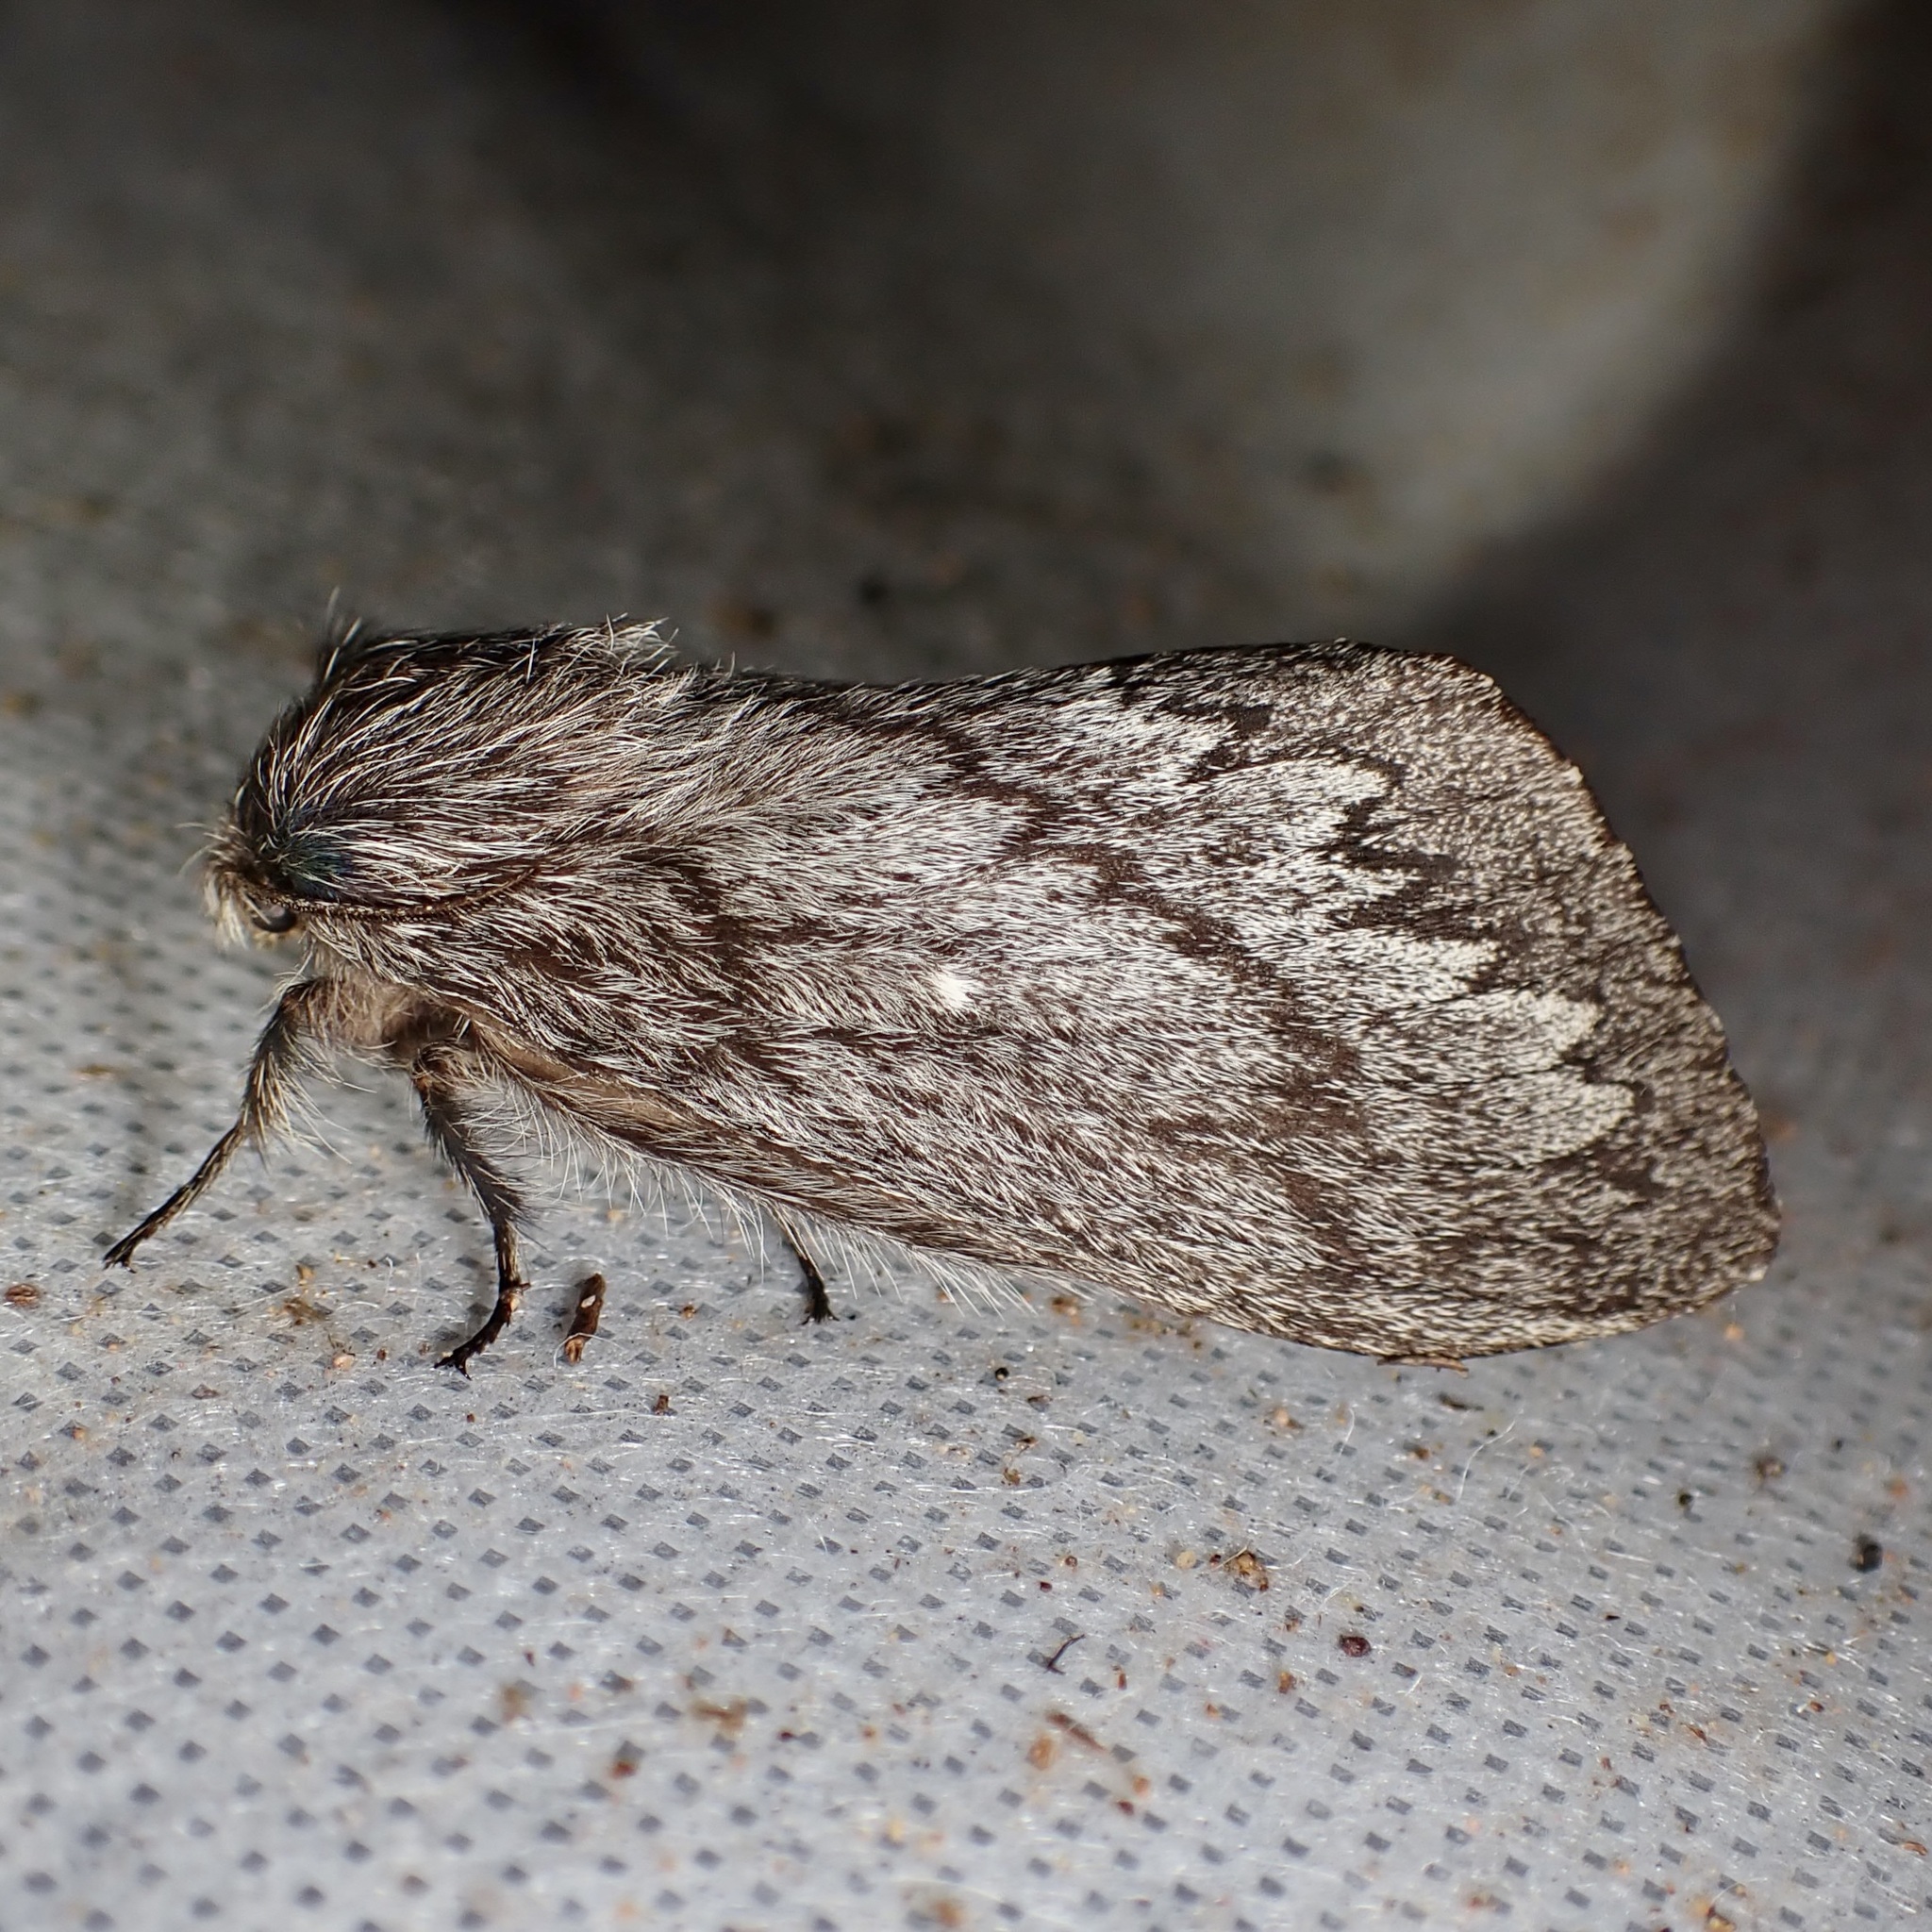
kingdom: Animalia
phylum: Arthropoda
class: Insecta
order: Lepidoptera
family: Lasiocampidae
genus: Gloveria
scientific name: Gloveria arizonensis
